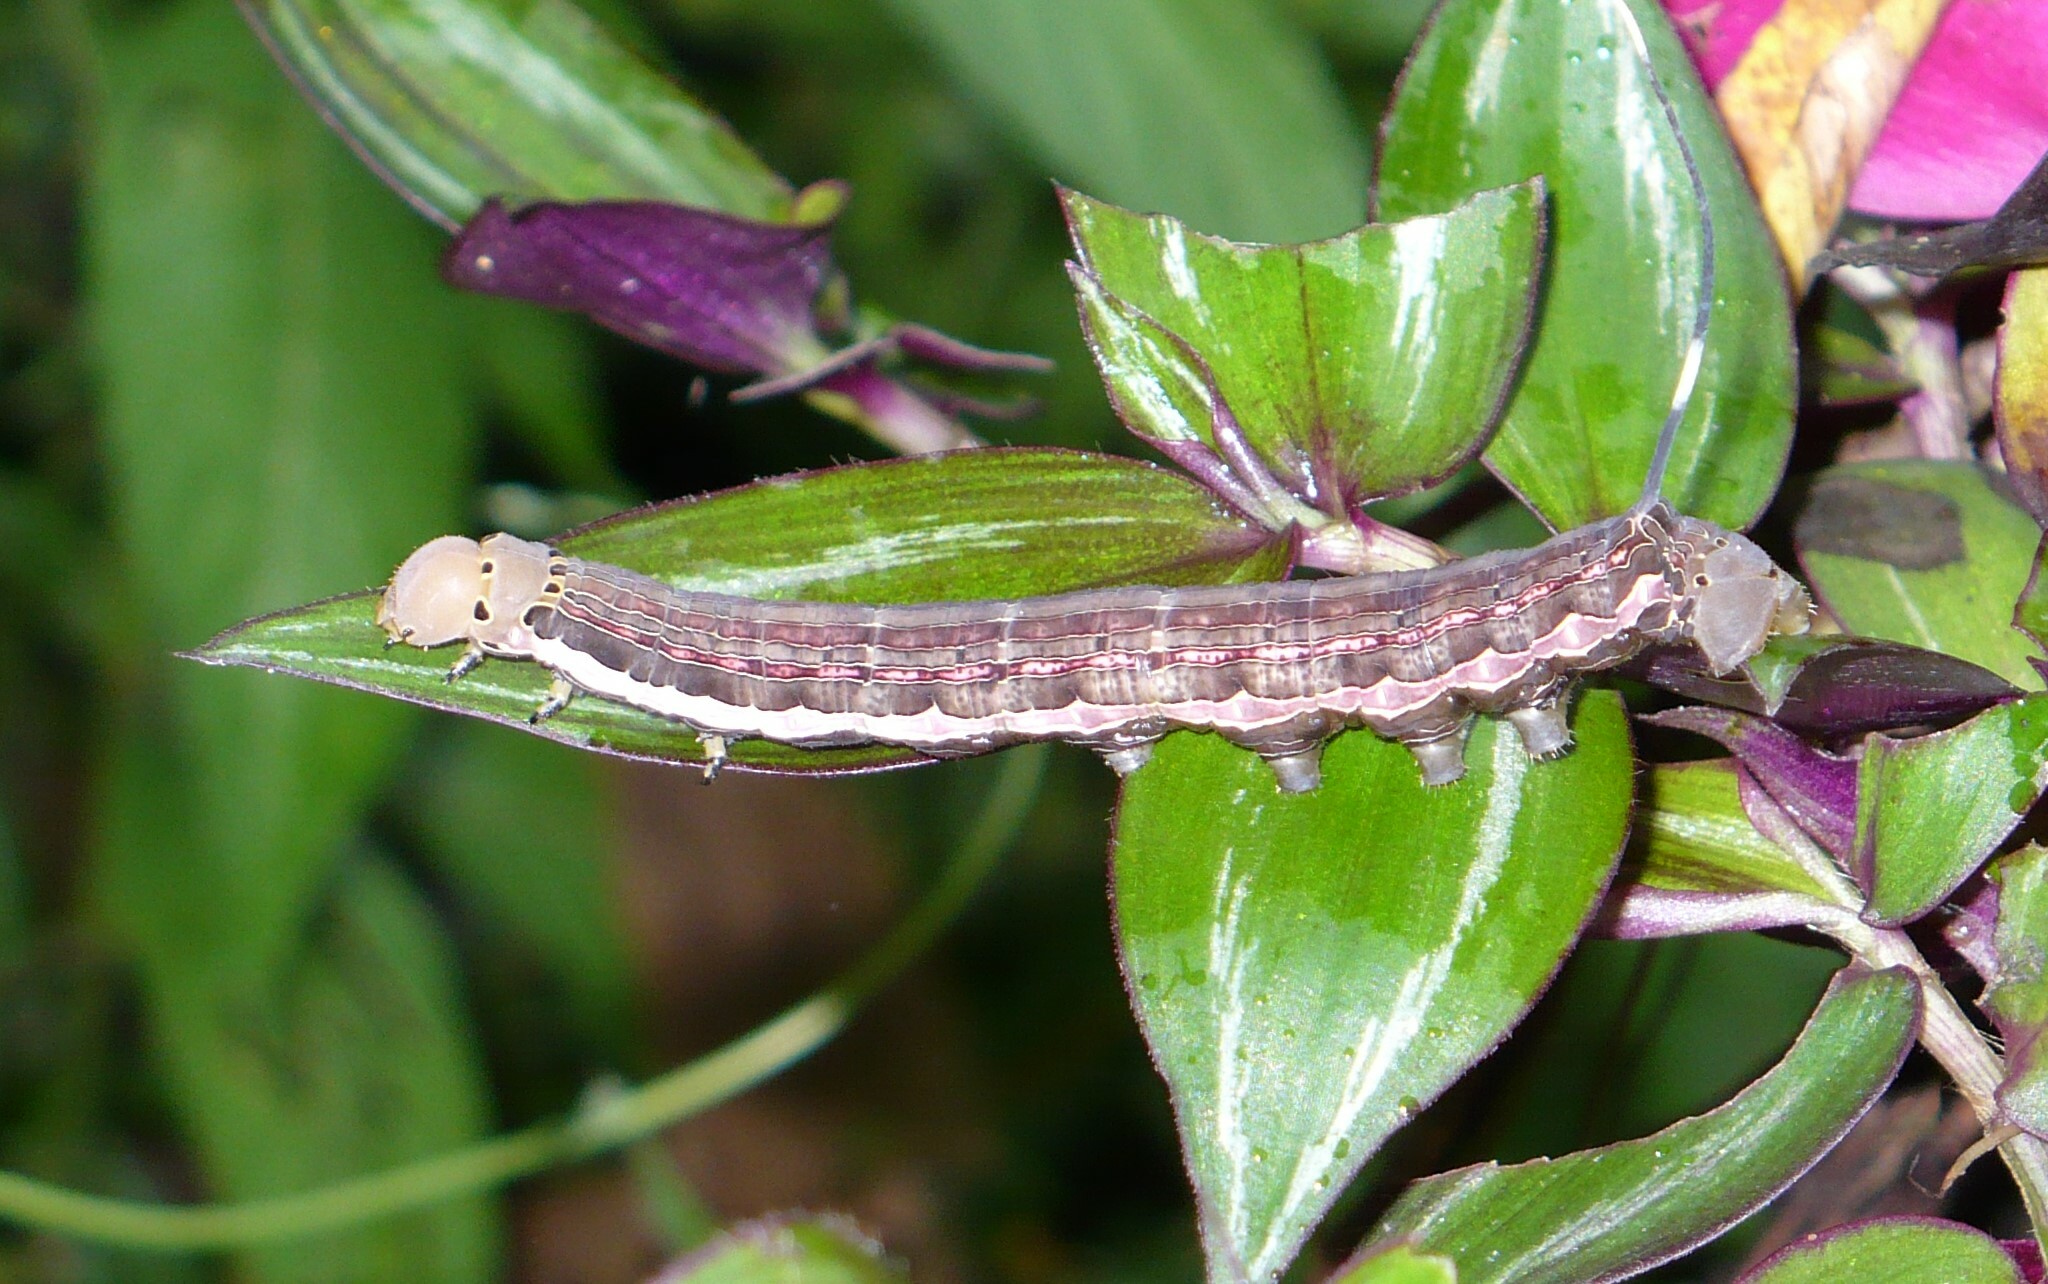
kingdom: Animalia
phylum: Arthropoda
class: Insecta
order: Lepidoptera
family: Sphingidae
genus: Isognathus
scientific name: Isognathus scyron
